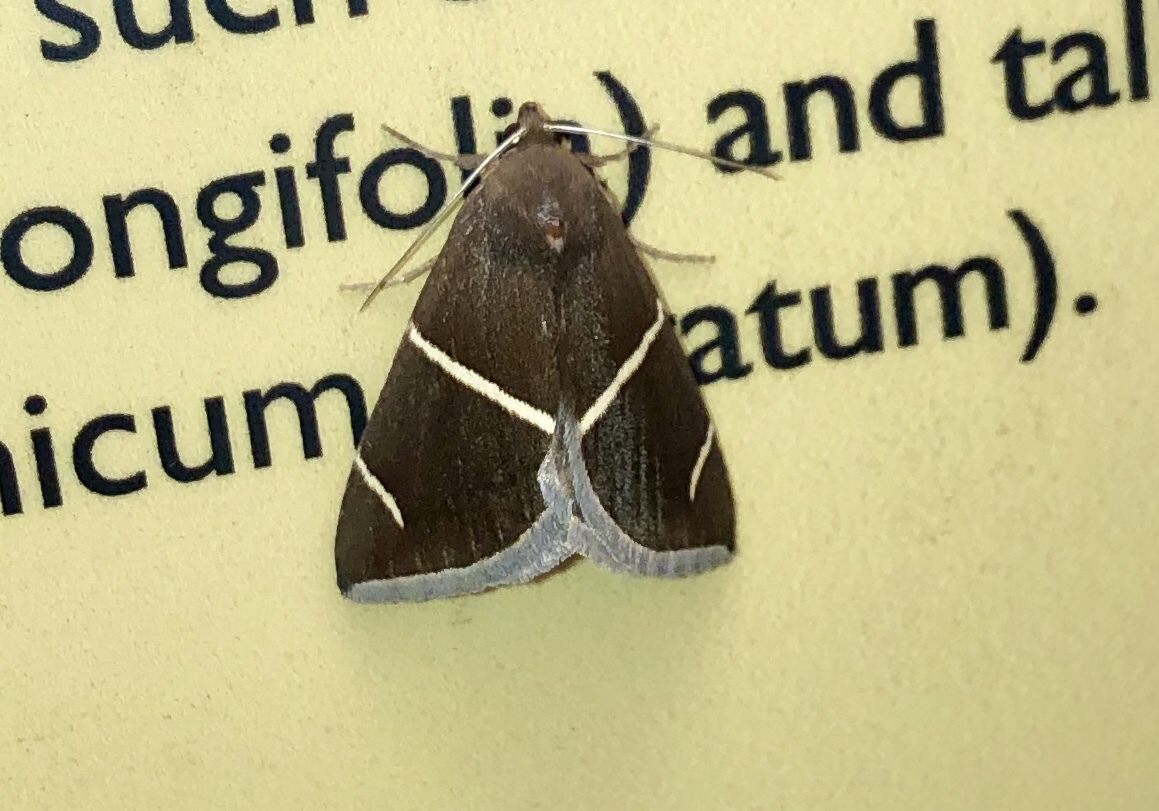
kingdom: Animalia
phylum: Arthropoda
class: Insecta
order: Lepidoptera
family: Erebidae
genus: Argyrostrotis
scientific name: Argyrostrotis anilis
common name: Short-lined chocolate
